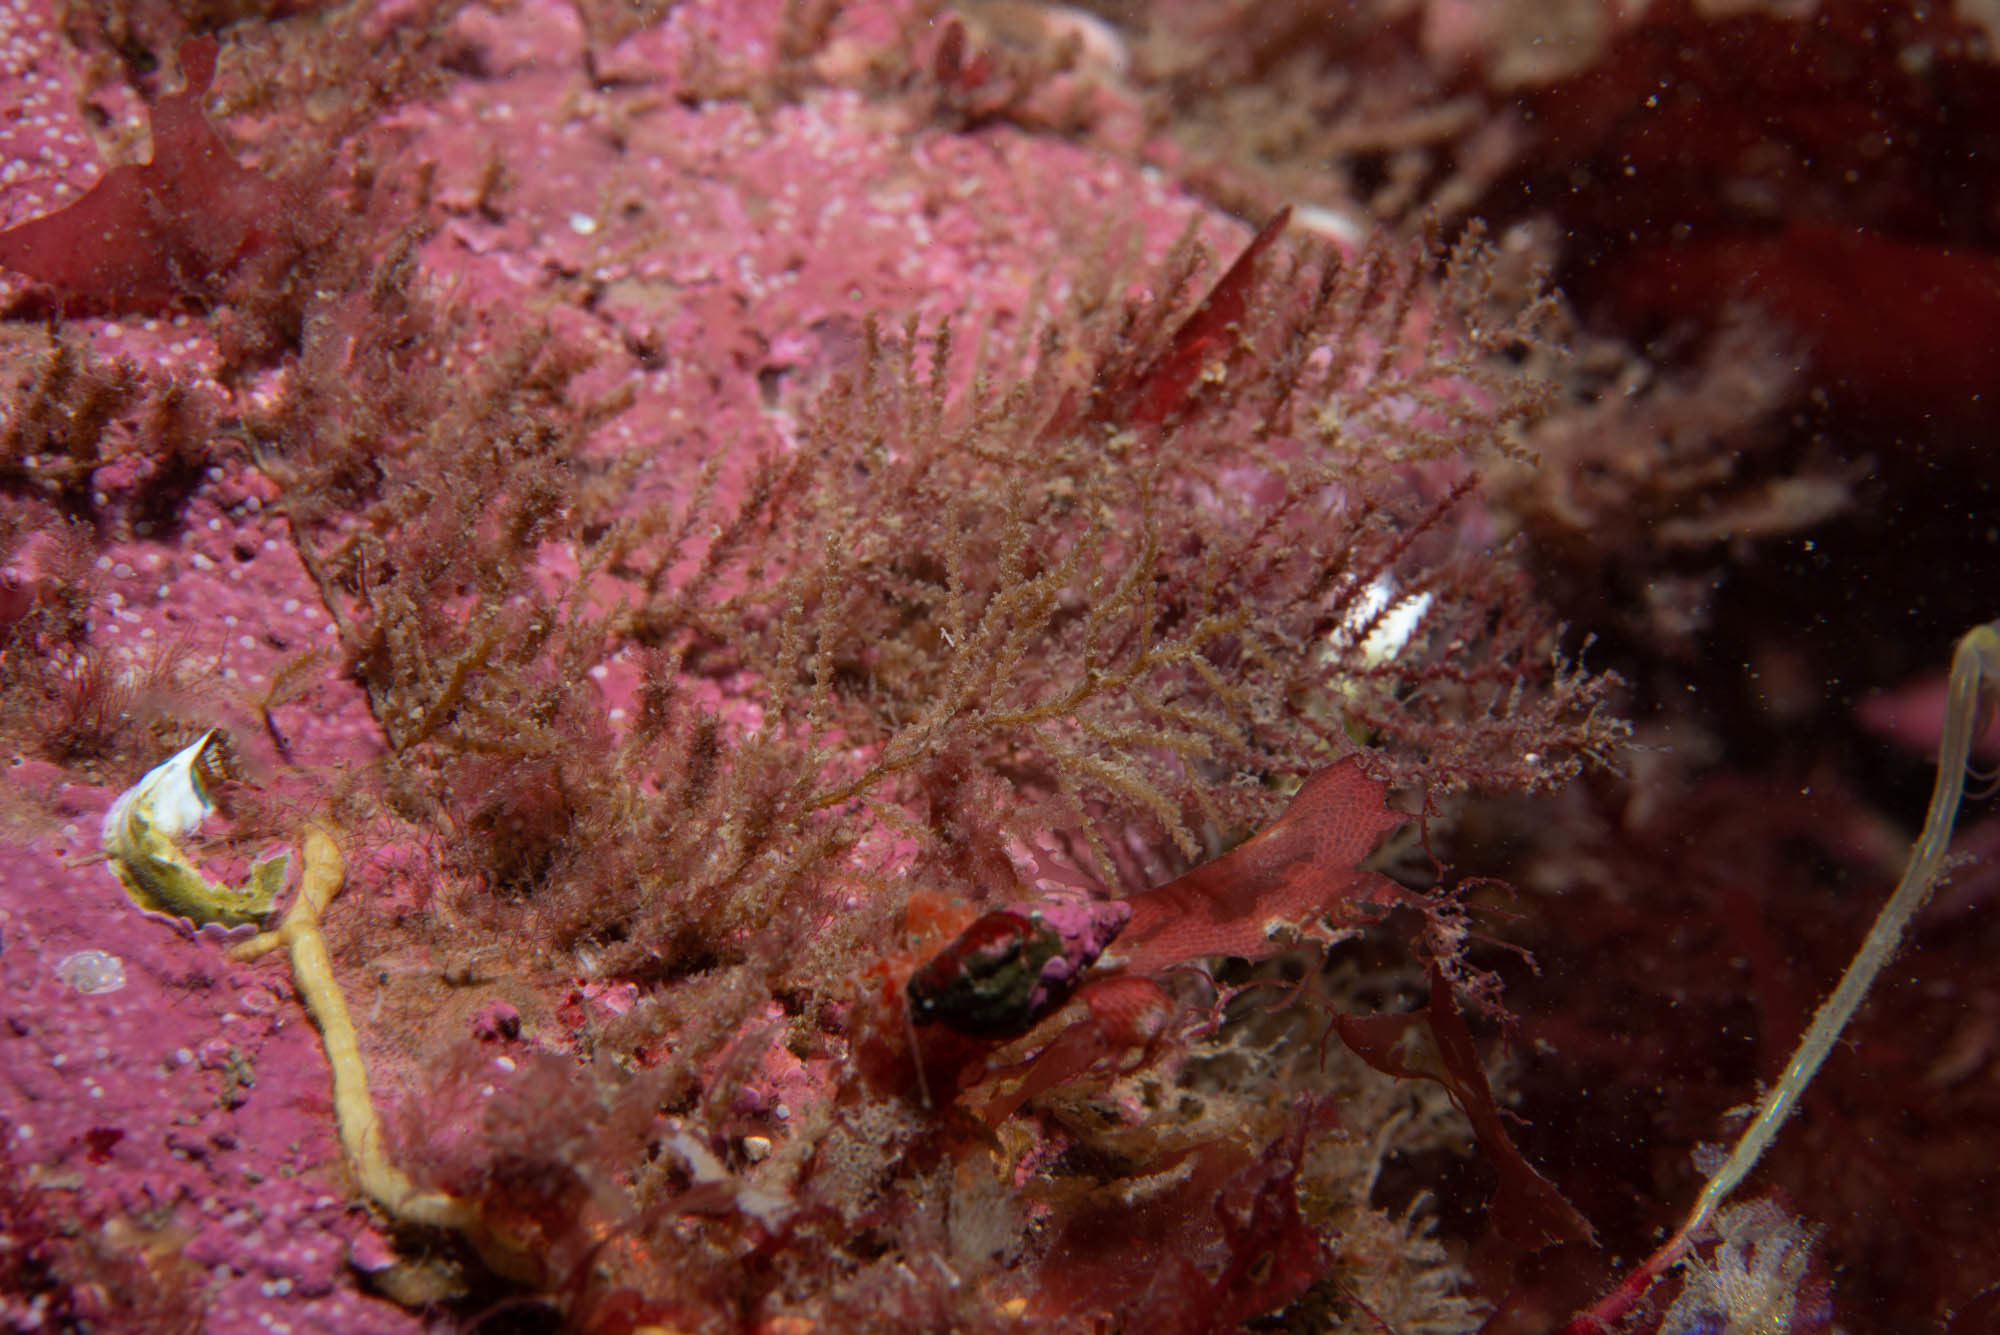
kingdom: Animalia
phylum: Cnidaria
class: Hydrozoa
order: Leptothecata
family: Sertulariidae
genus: Abietinaria
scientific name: Abietinaria filicula
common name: Fern hydroid
